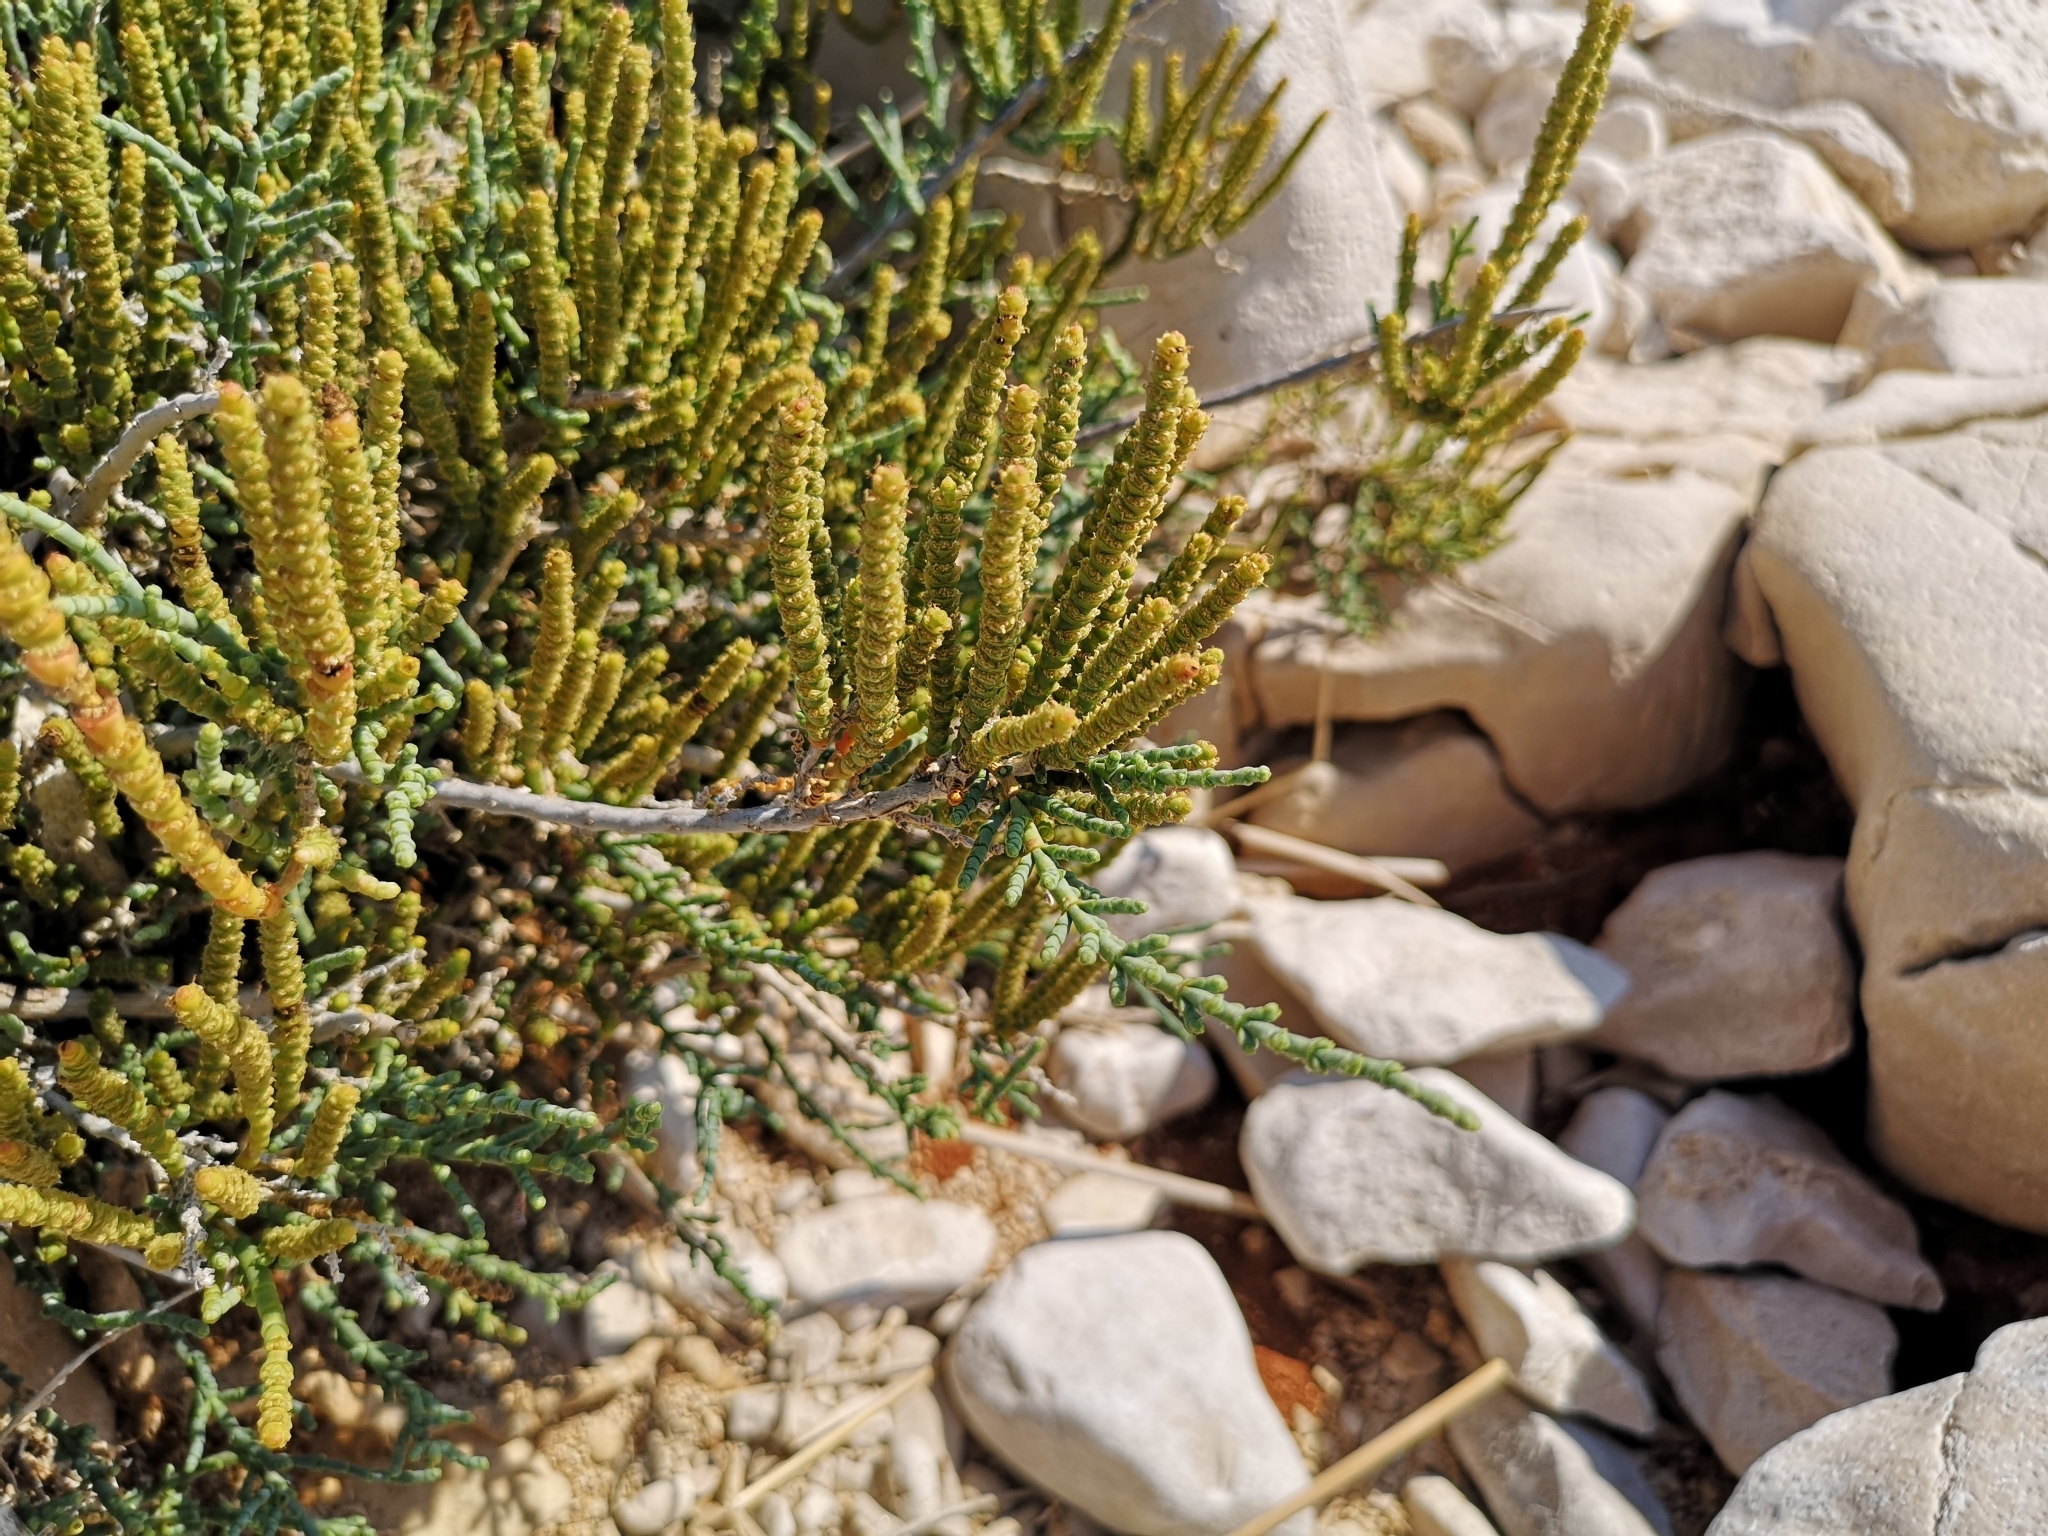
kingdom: Plantae
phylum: Tracheophyta
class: Magnoliopsida
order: Caryophyllales
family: Amaranthaceae
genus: Arthrocaulon
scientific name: Arthrocaulon macrostachyum
